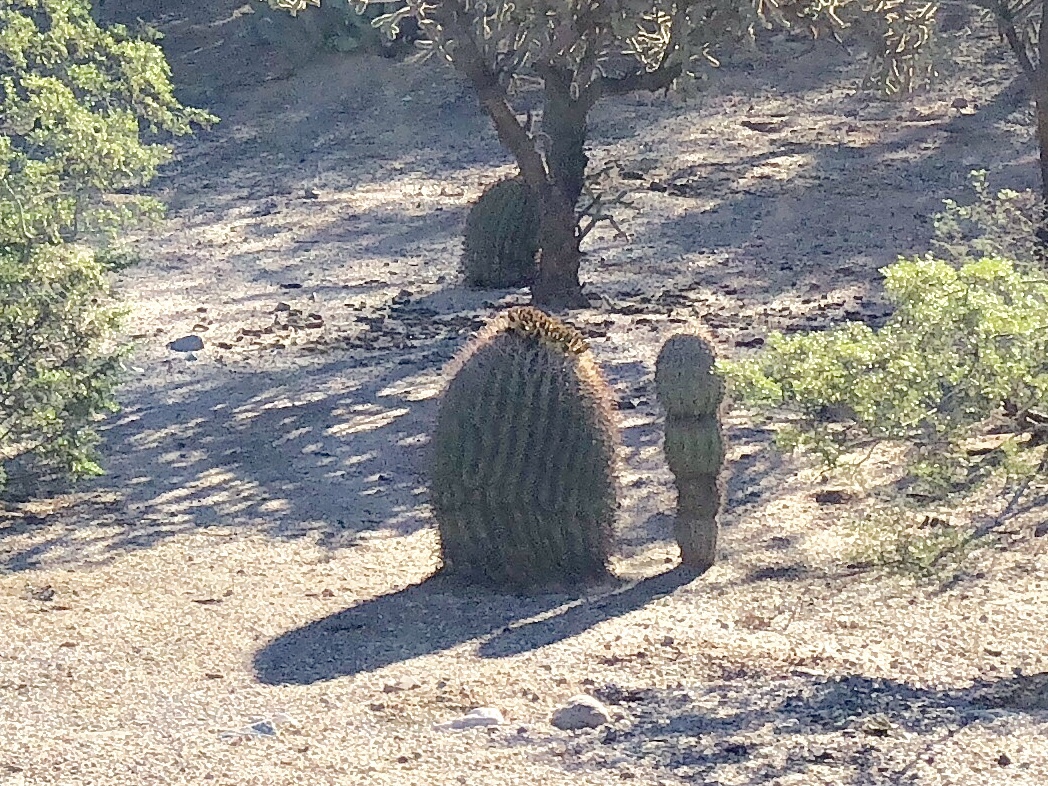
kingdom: Plantae
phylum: Tracheophyta
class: Magnoliopsida
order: Caryophyllales
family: Cactaceae
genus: Ferocactus
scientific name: Ferocactus wislizeni
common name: Candy barrel cactus
